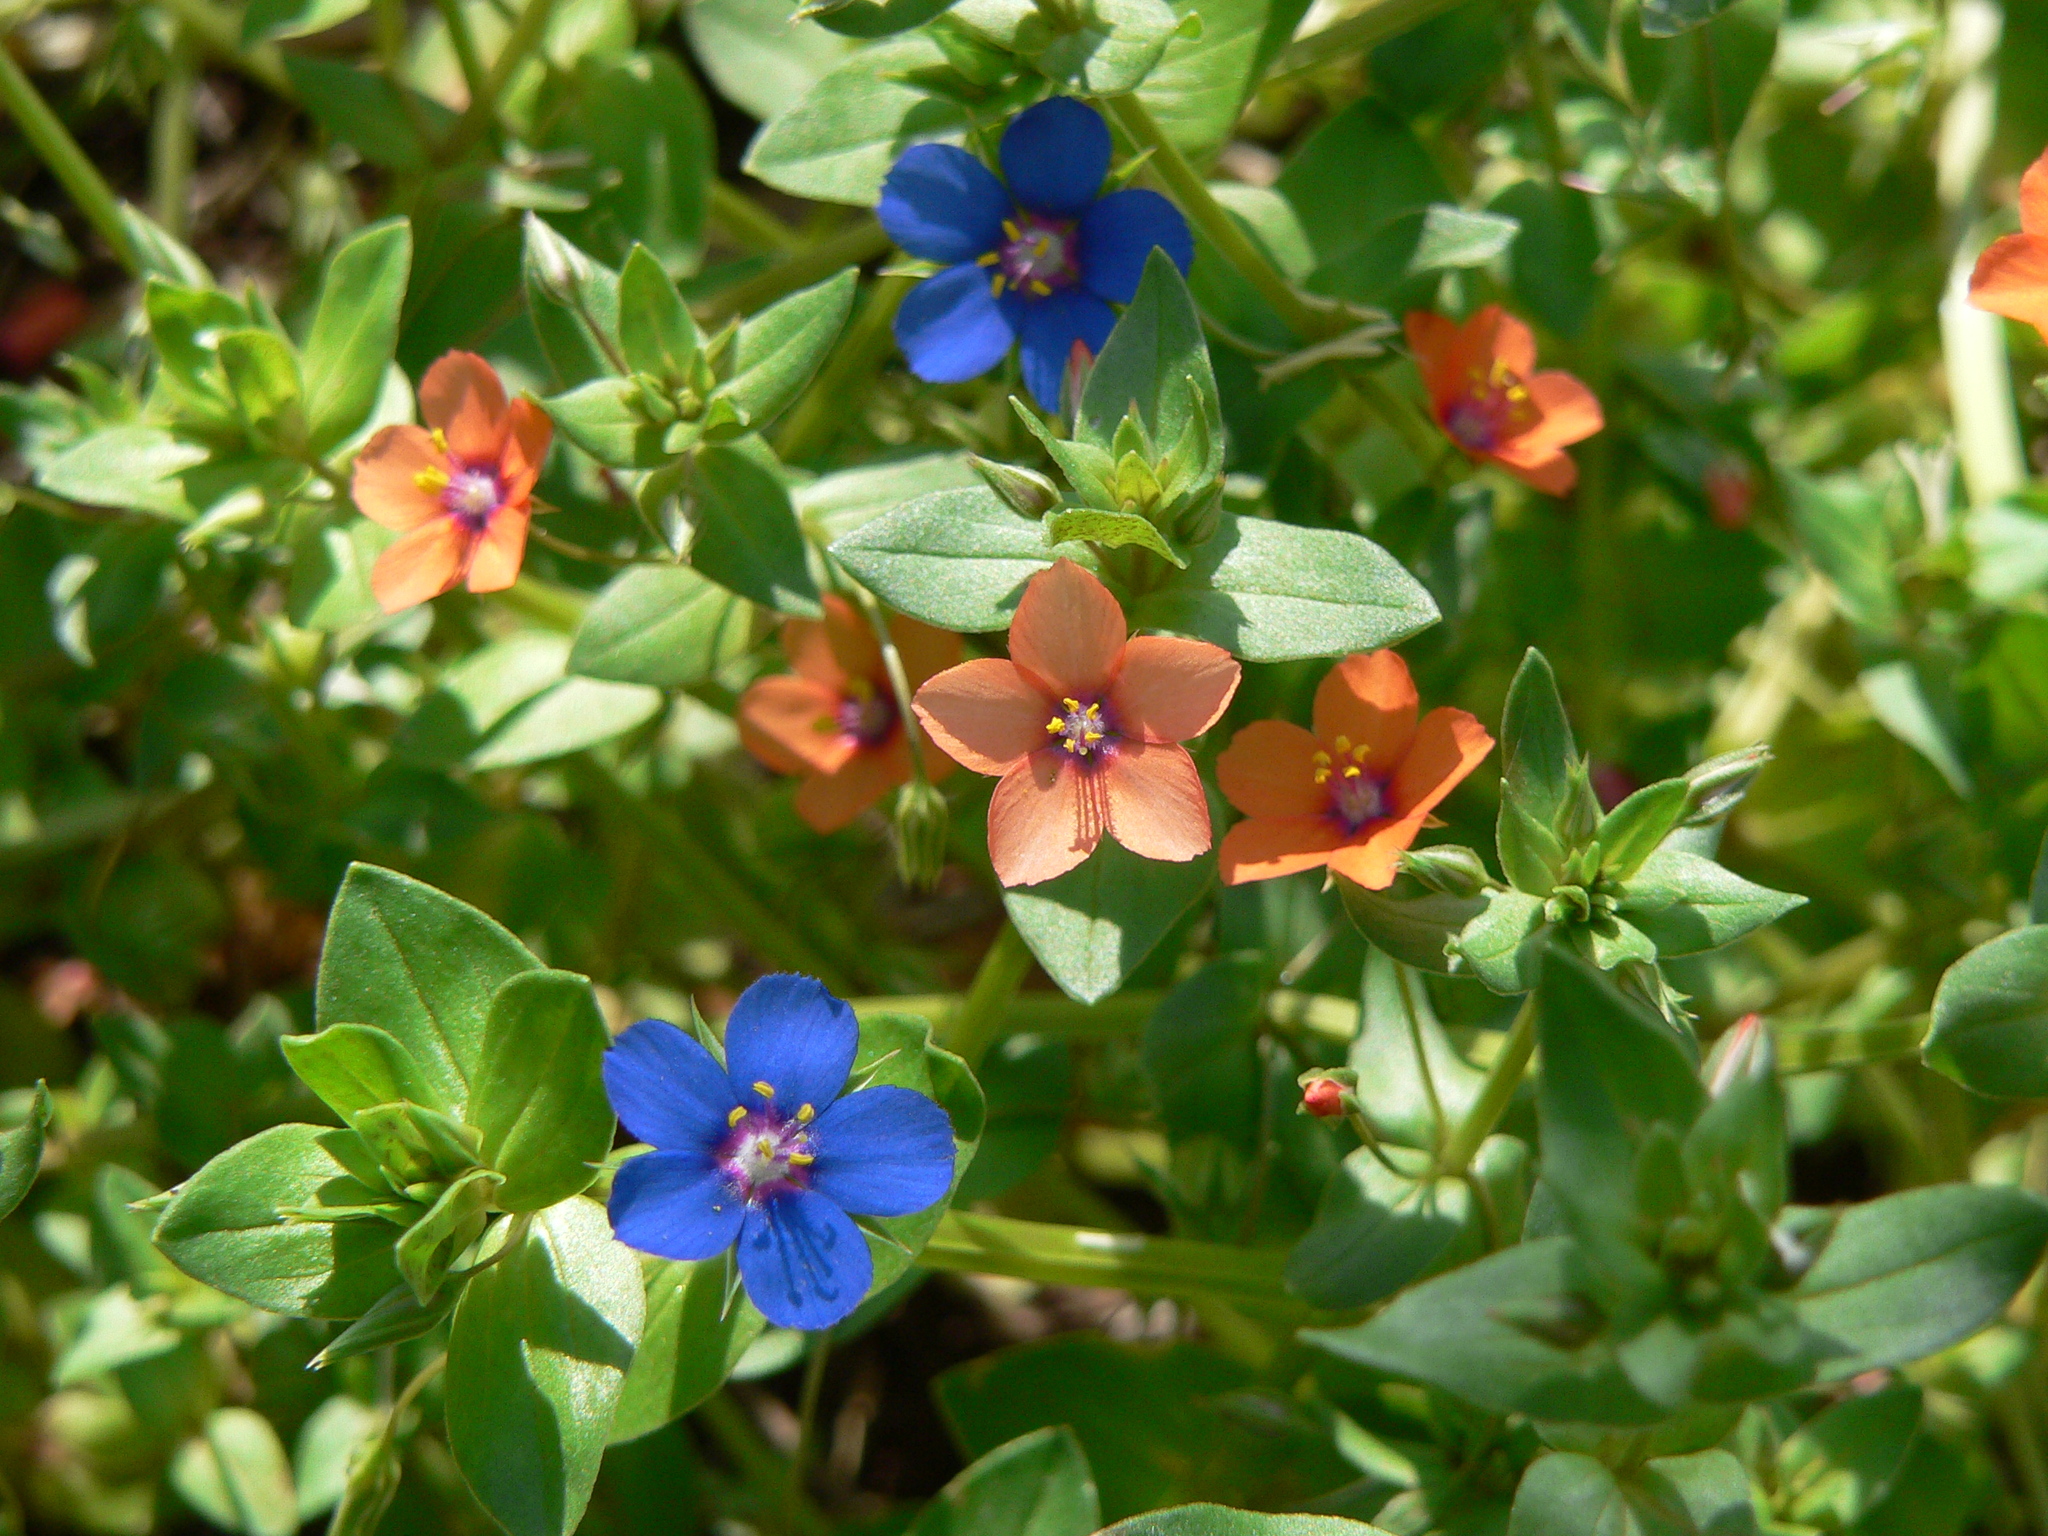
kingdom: Plantae
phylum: Tracheophyta
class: Magnoliopsida
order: Ericales
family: Primulaceae
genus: Lysimachia
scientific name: Lysimachia arvensis
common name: Scarlet pimpernel
